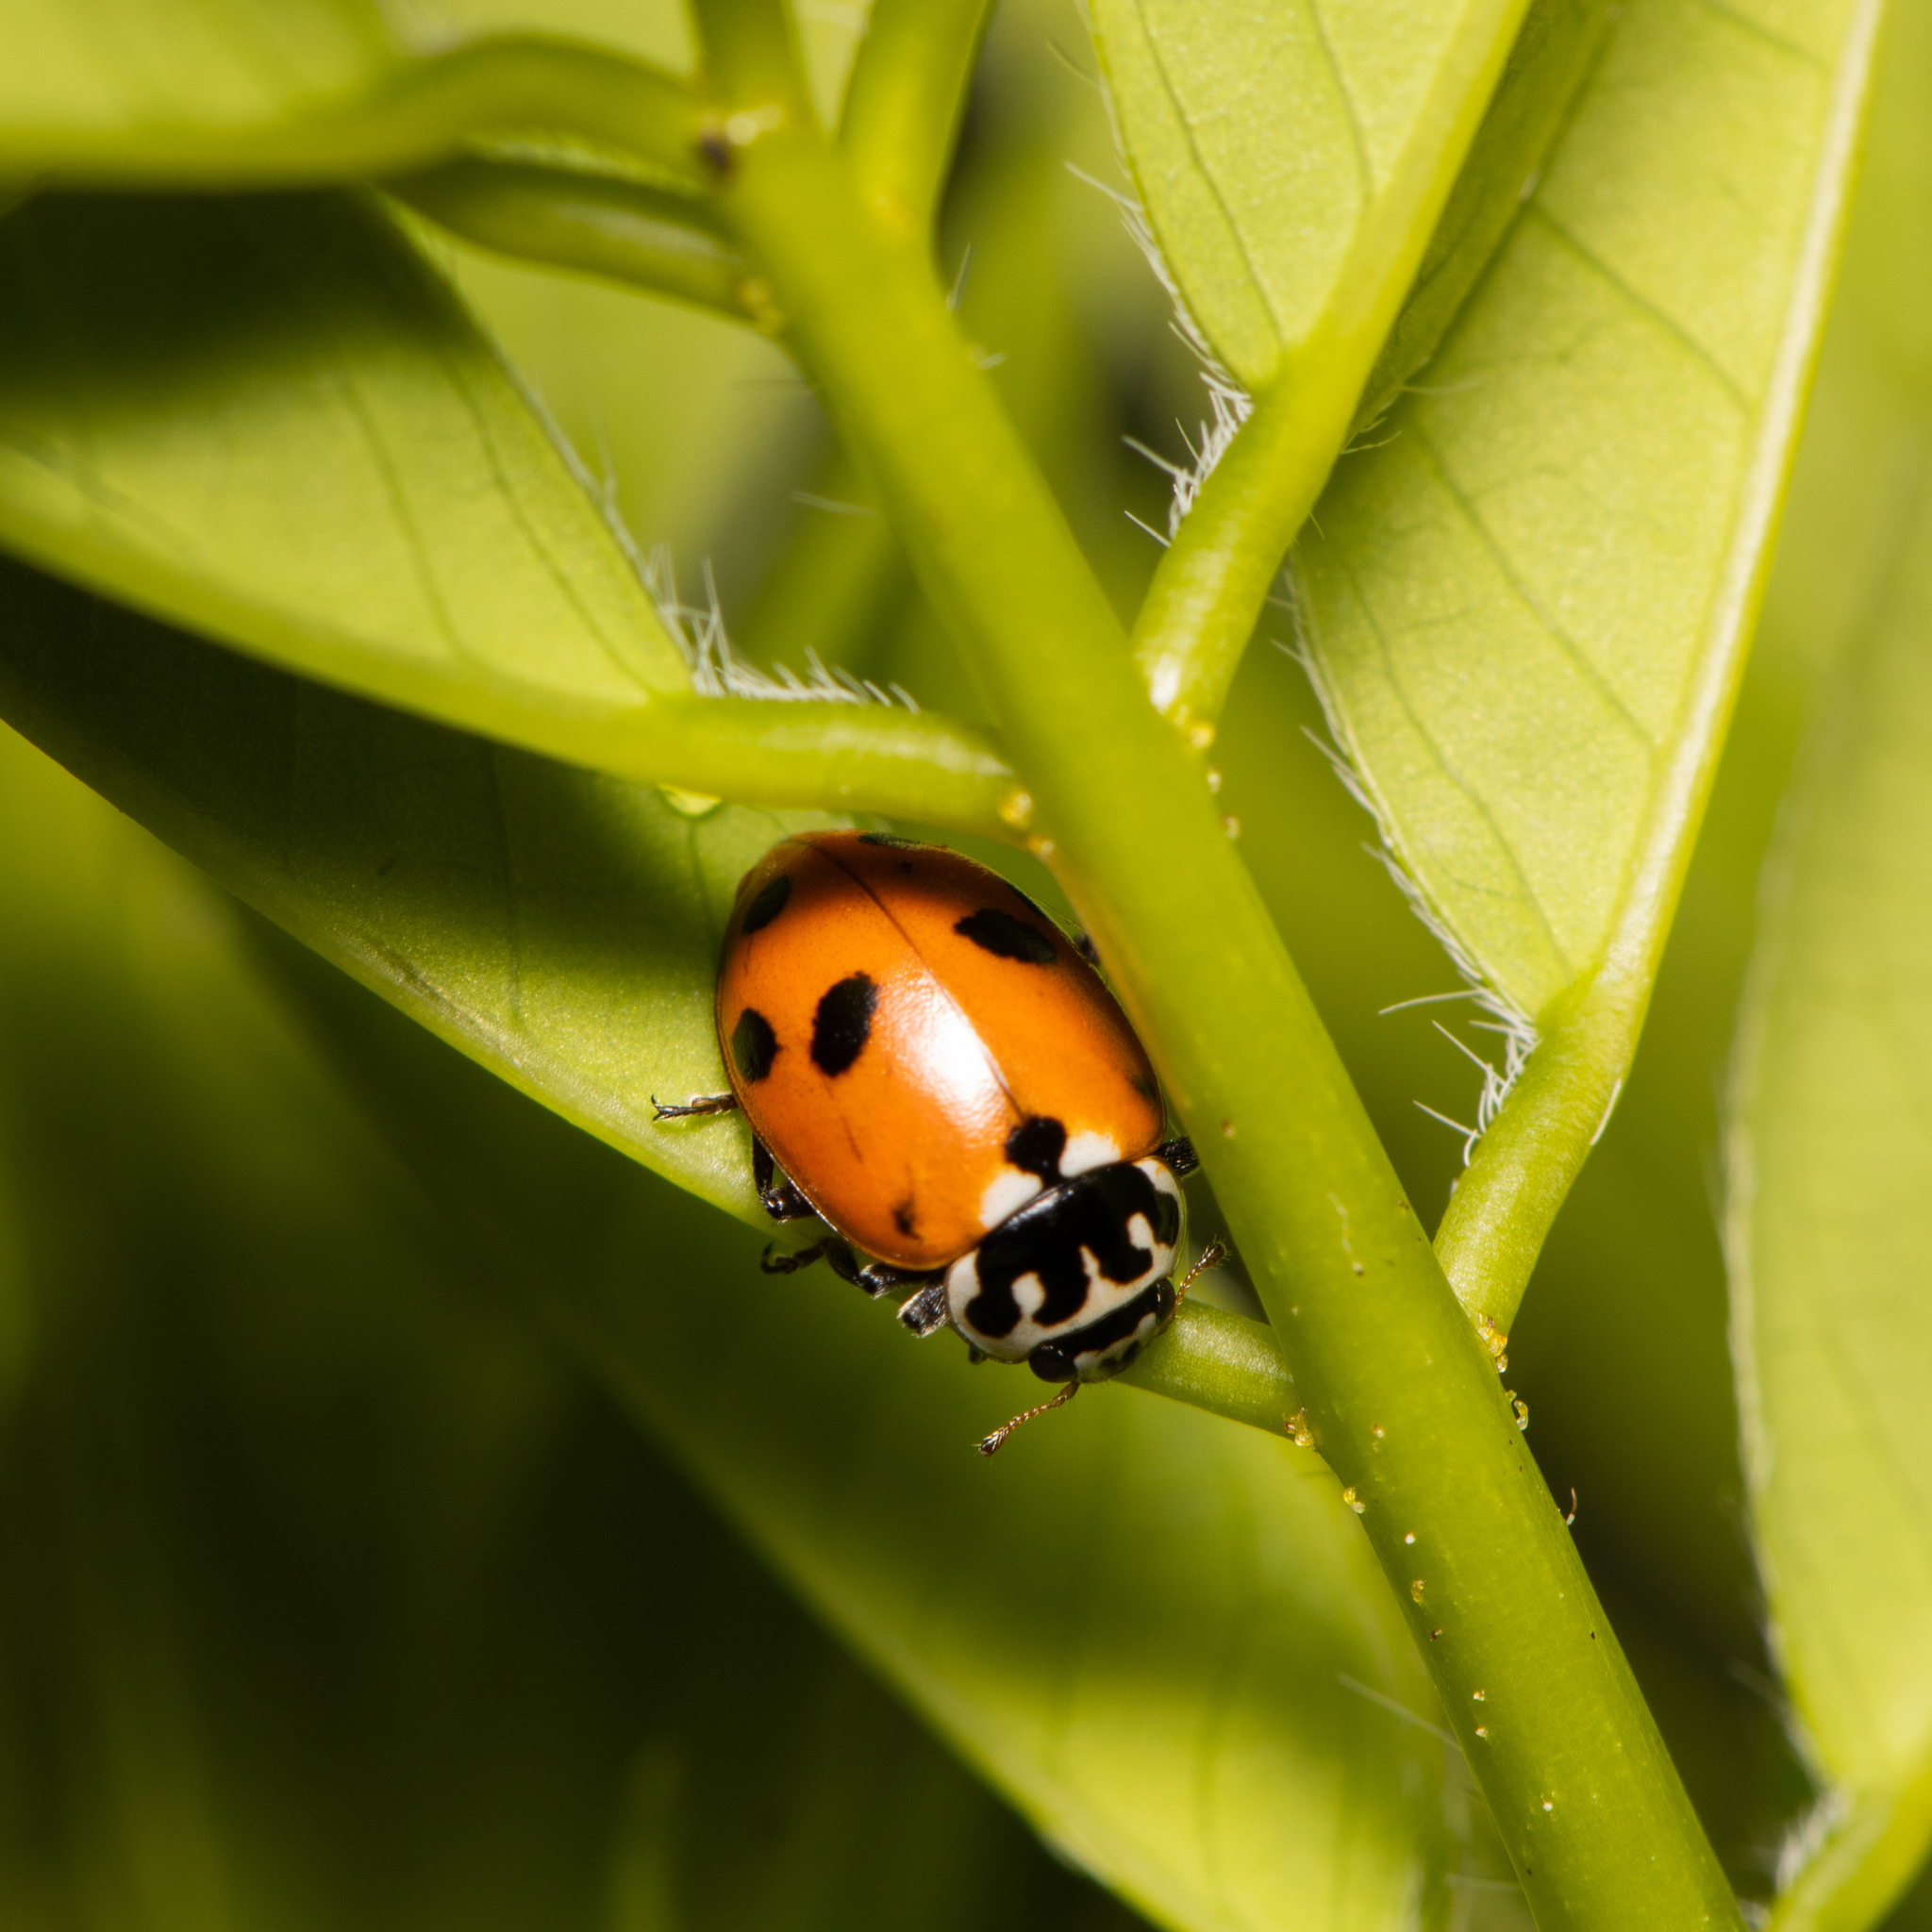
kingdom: Animalia
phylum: Arthropoda
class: Insecta
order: Coleoptera
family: Coccinellidae
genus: Hippodamia
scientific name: Hippodamia variegata
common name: Ladybird beetle
